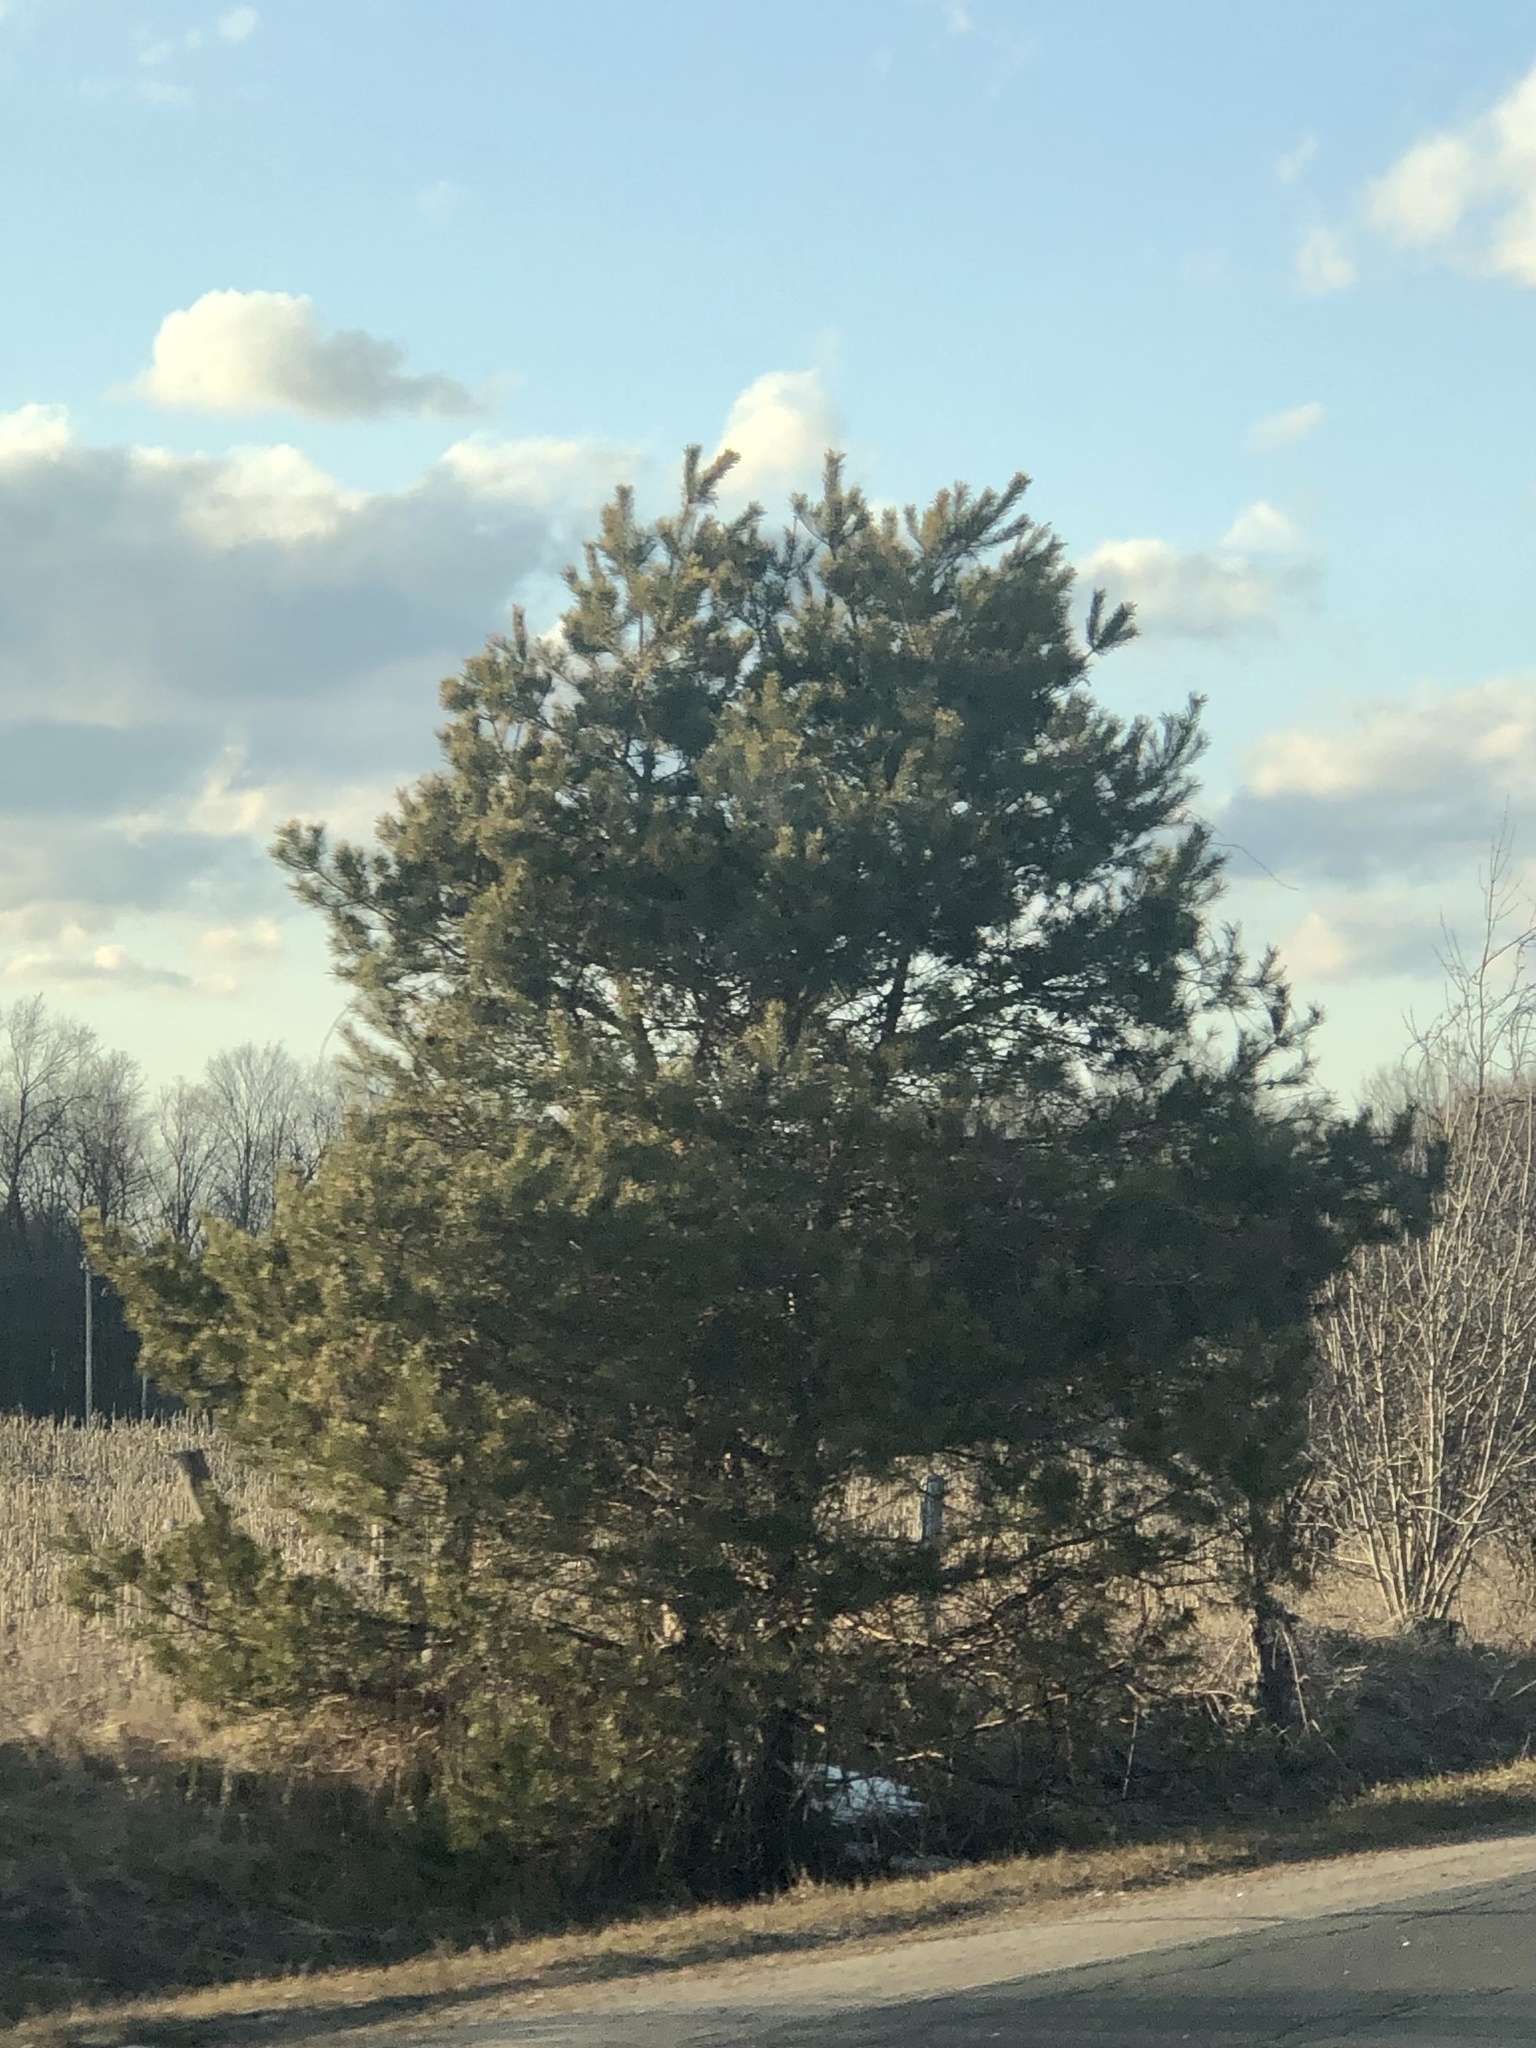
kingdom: Plantae
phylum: Tracheophyta
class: Pinopsida
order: Pinales
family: Pinaceae
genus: Pinus
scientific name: Pinus sylvestris
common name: Scots pine
